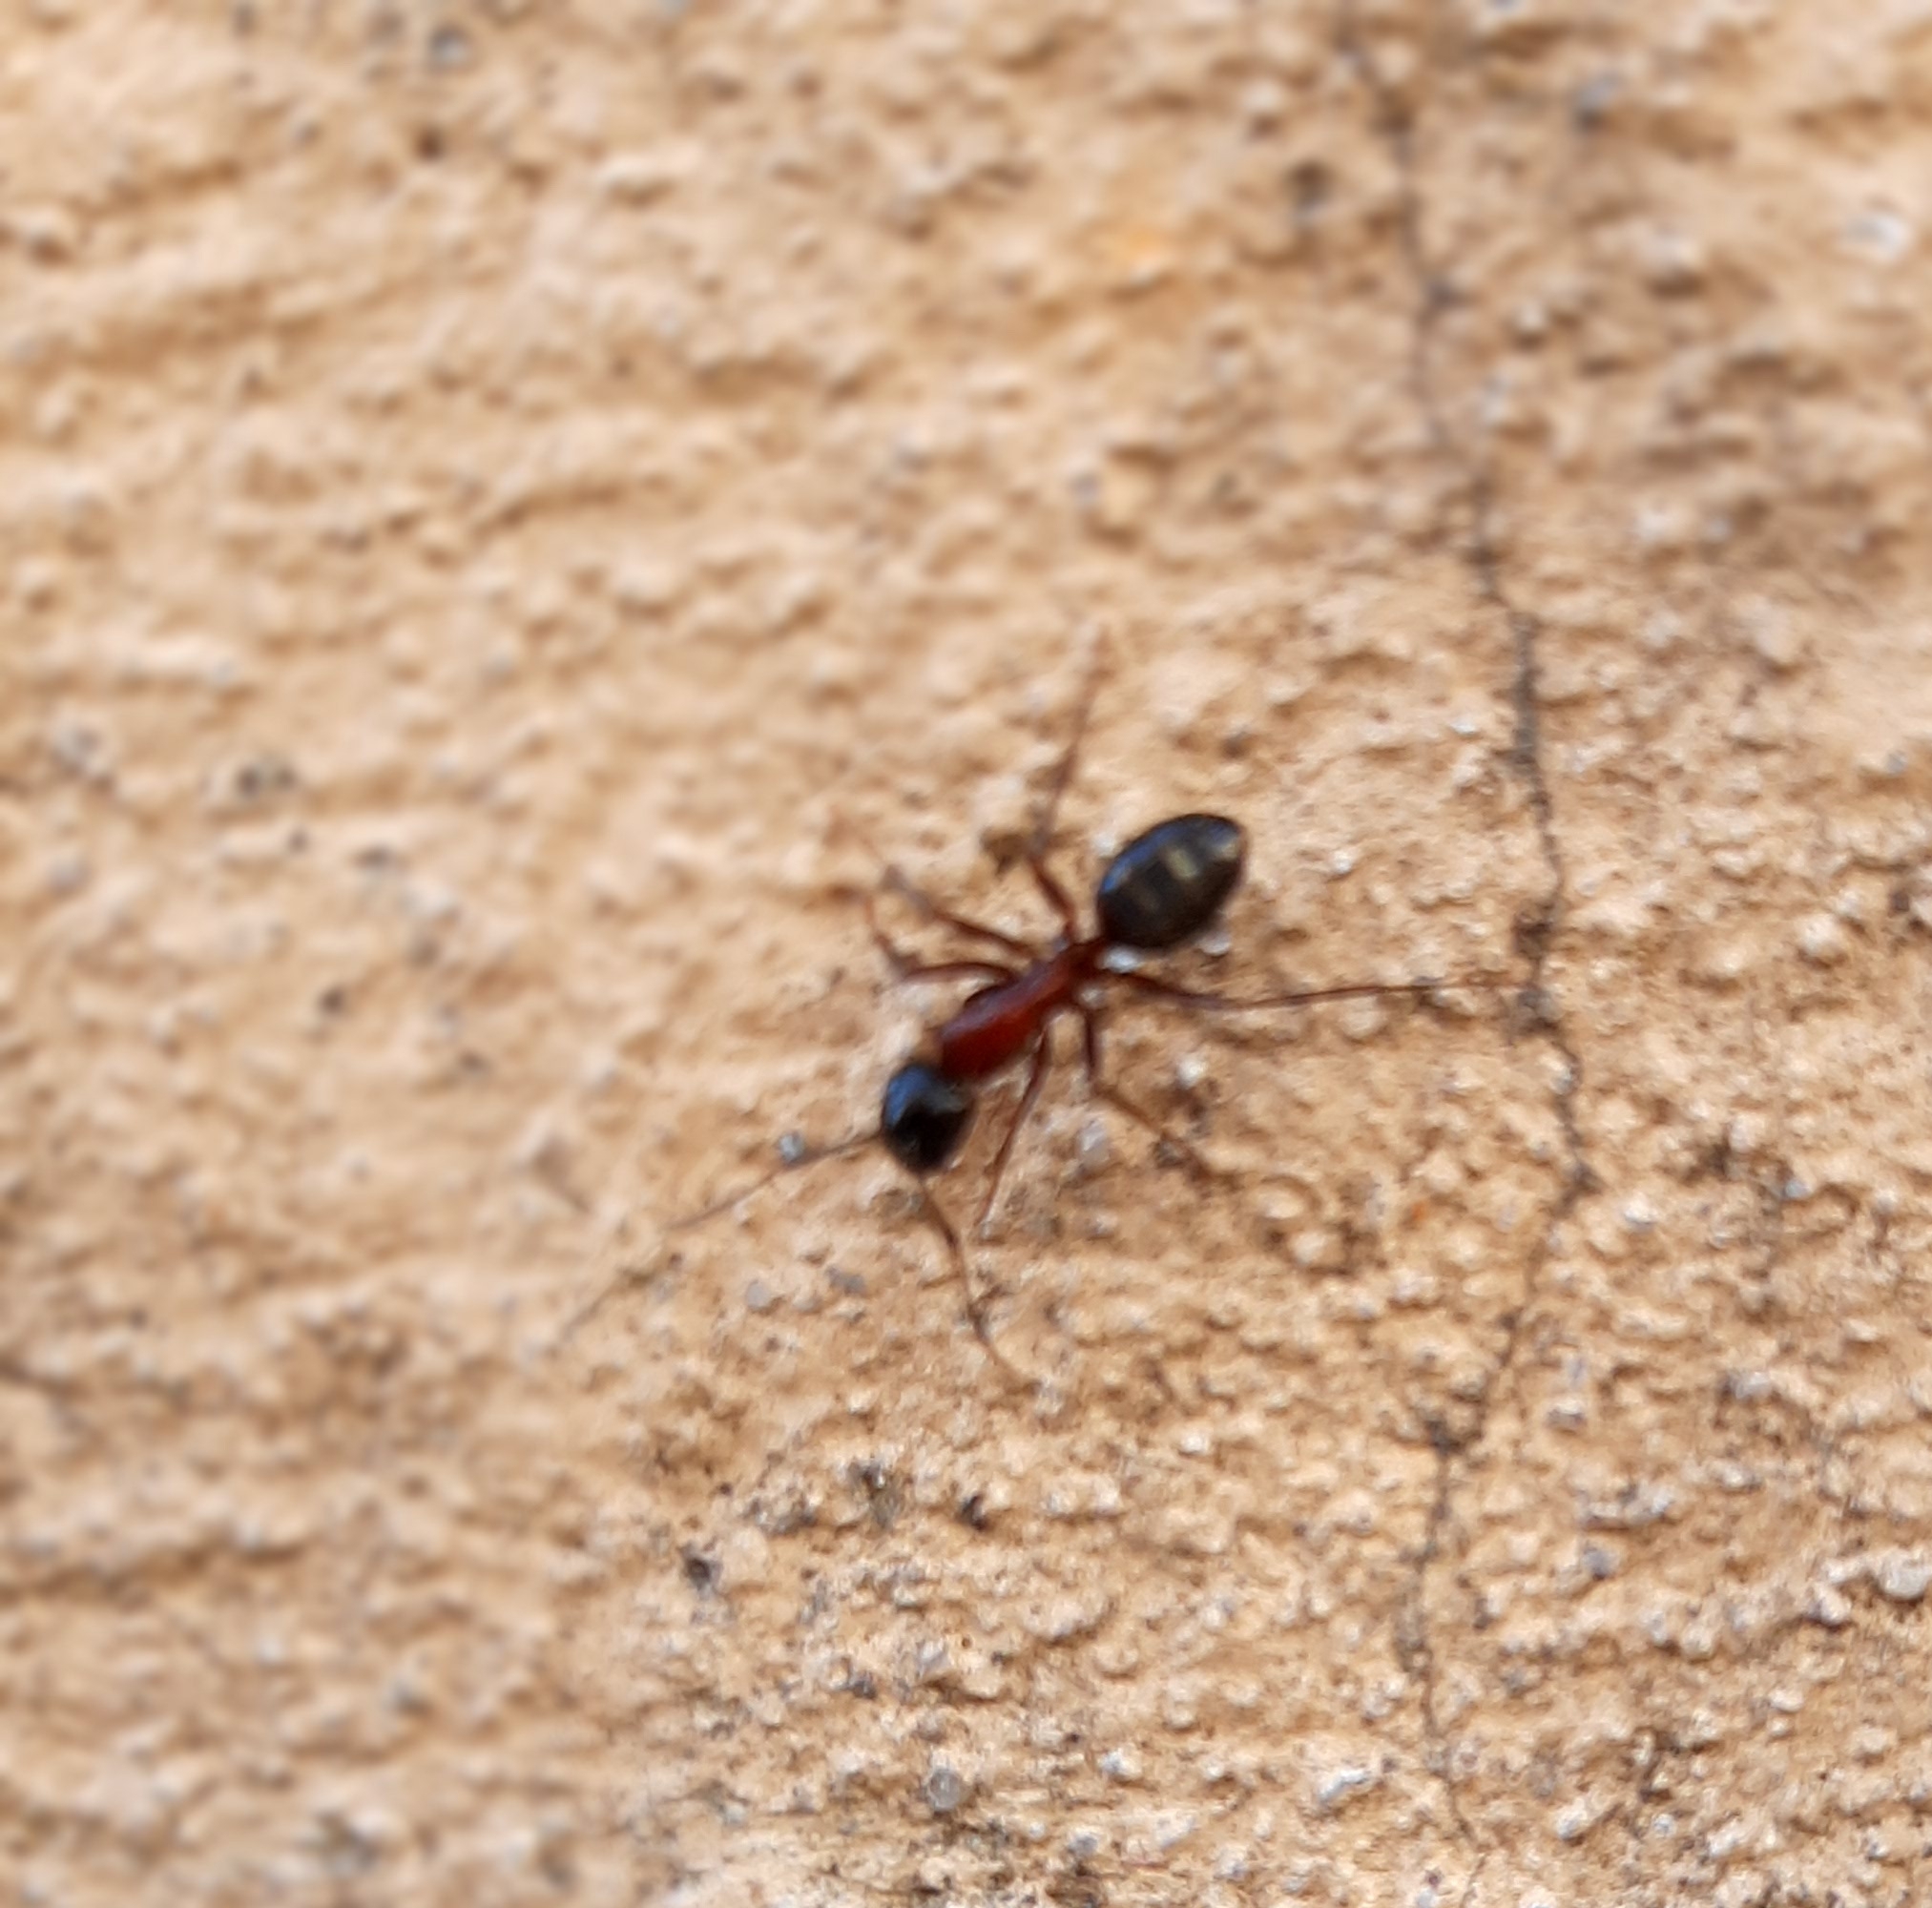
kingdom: Animalia
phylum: Arthropoda
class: Insecta
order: Hymenoptera
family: Formicidae
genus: Camponotus
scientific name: Camponotus ligniperdus
